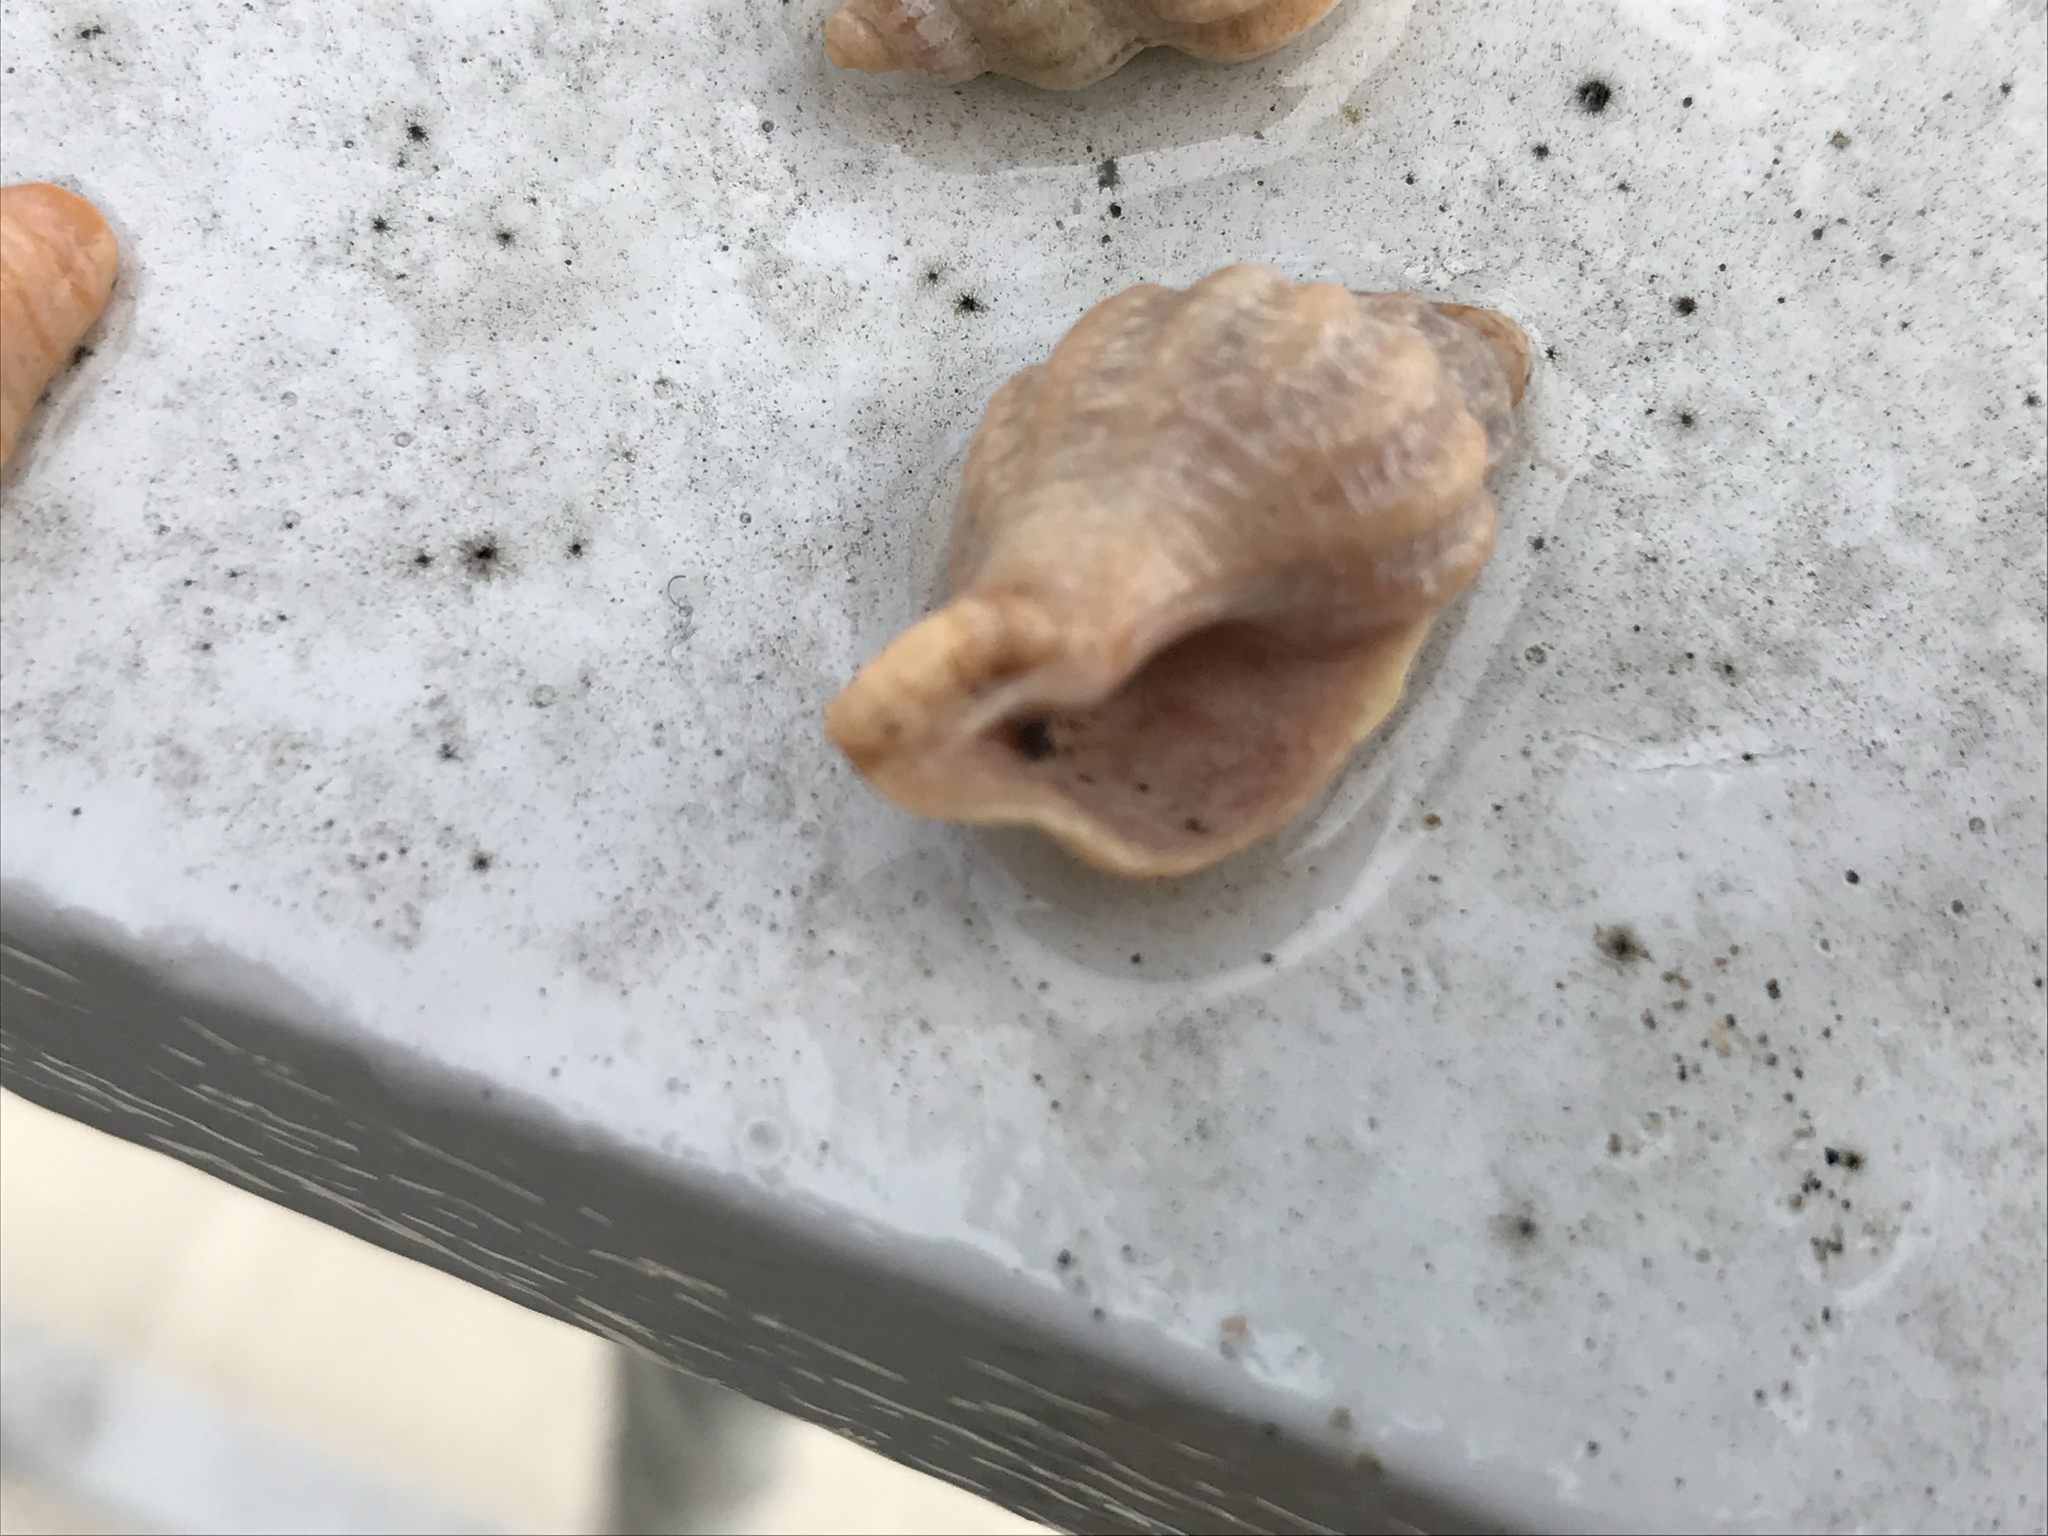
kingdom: Animalia
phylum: Mollusca
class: Gastropoda
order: Neogastropoda
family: Muricidae
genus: Urosalpinx
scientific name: Urosalpinx cinerea
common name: American sting winkle
